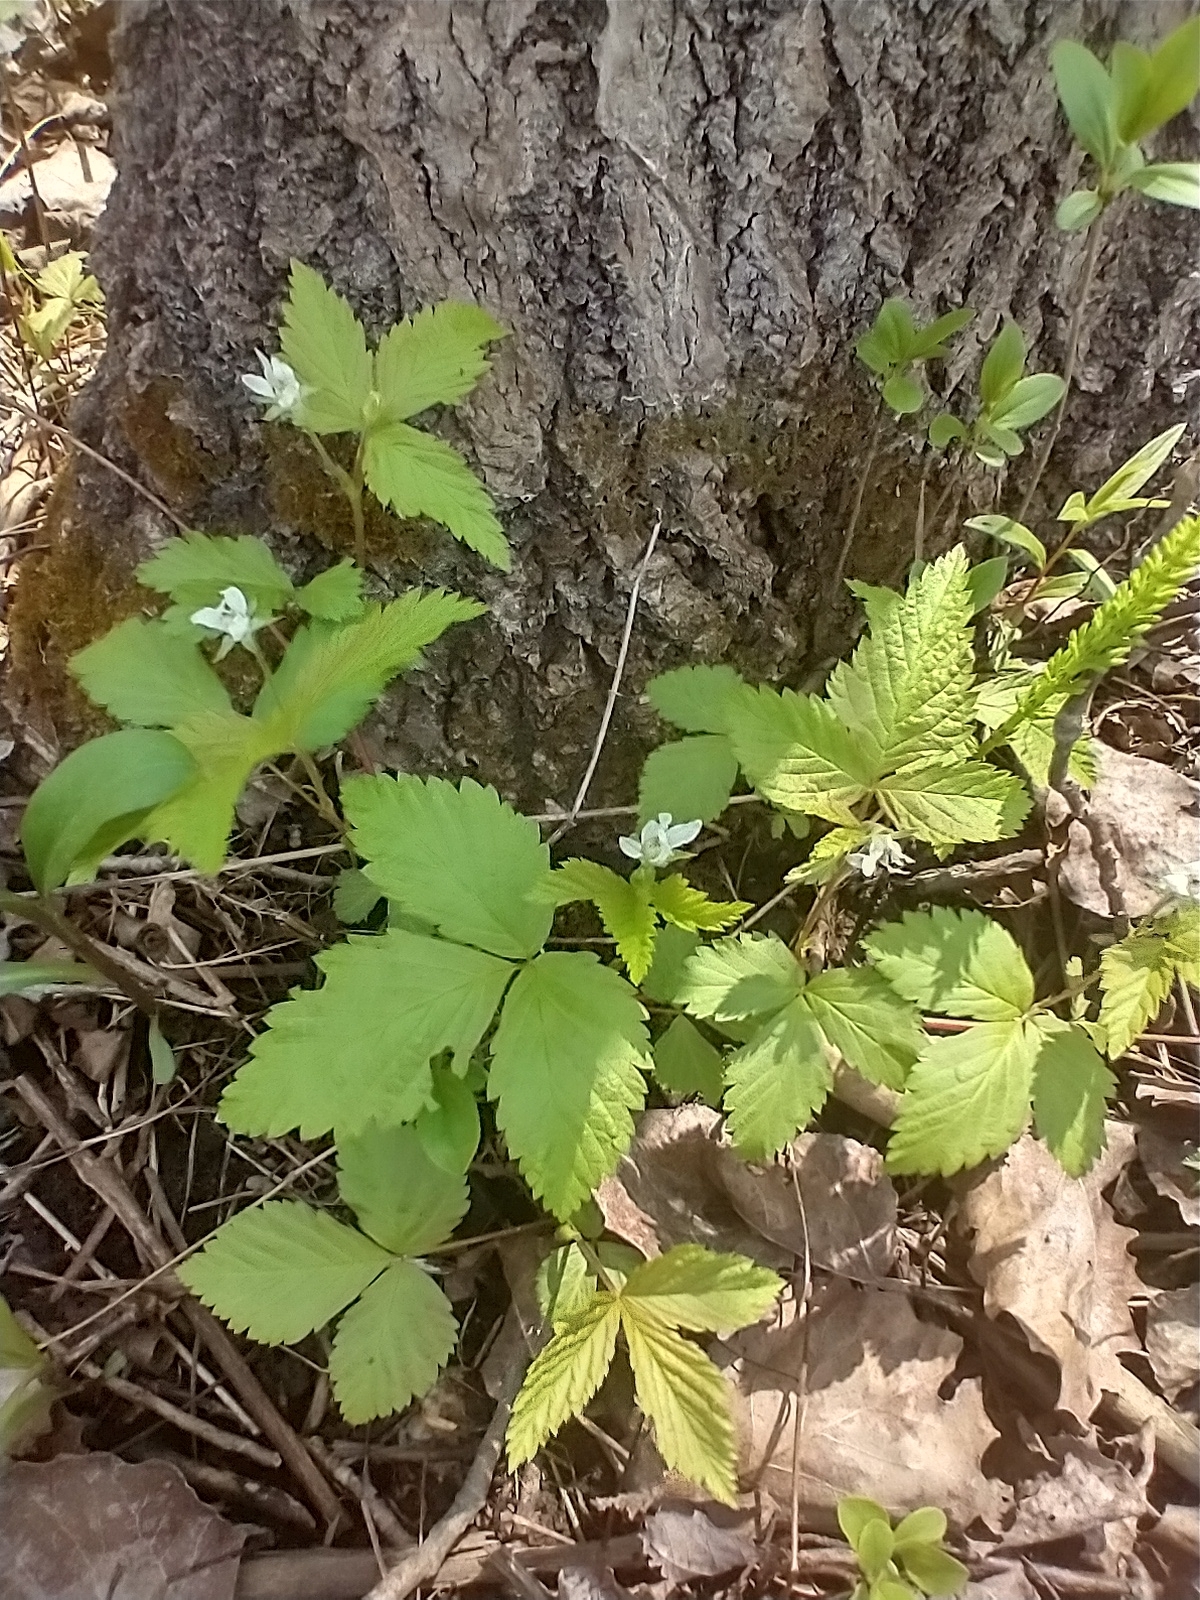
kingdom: Plantae
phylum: Tracheophyta
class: Magnoliopsida
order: Rosales
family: Rosaceae
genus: Rubus
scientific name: Rubus pubescens
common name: Dwarf raspberry
